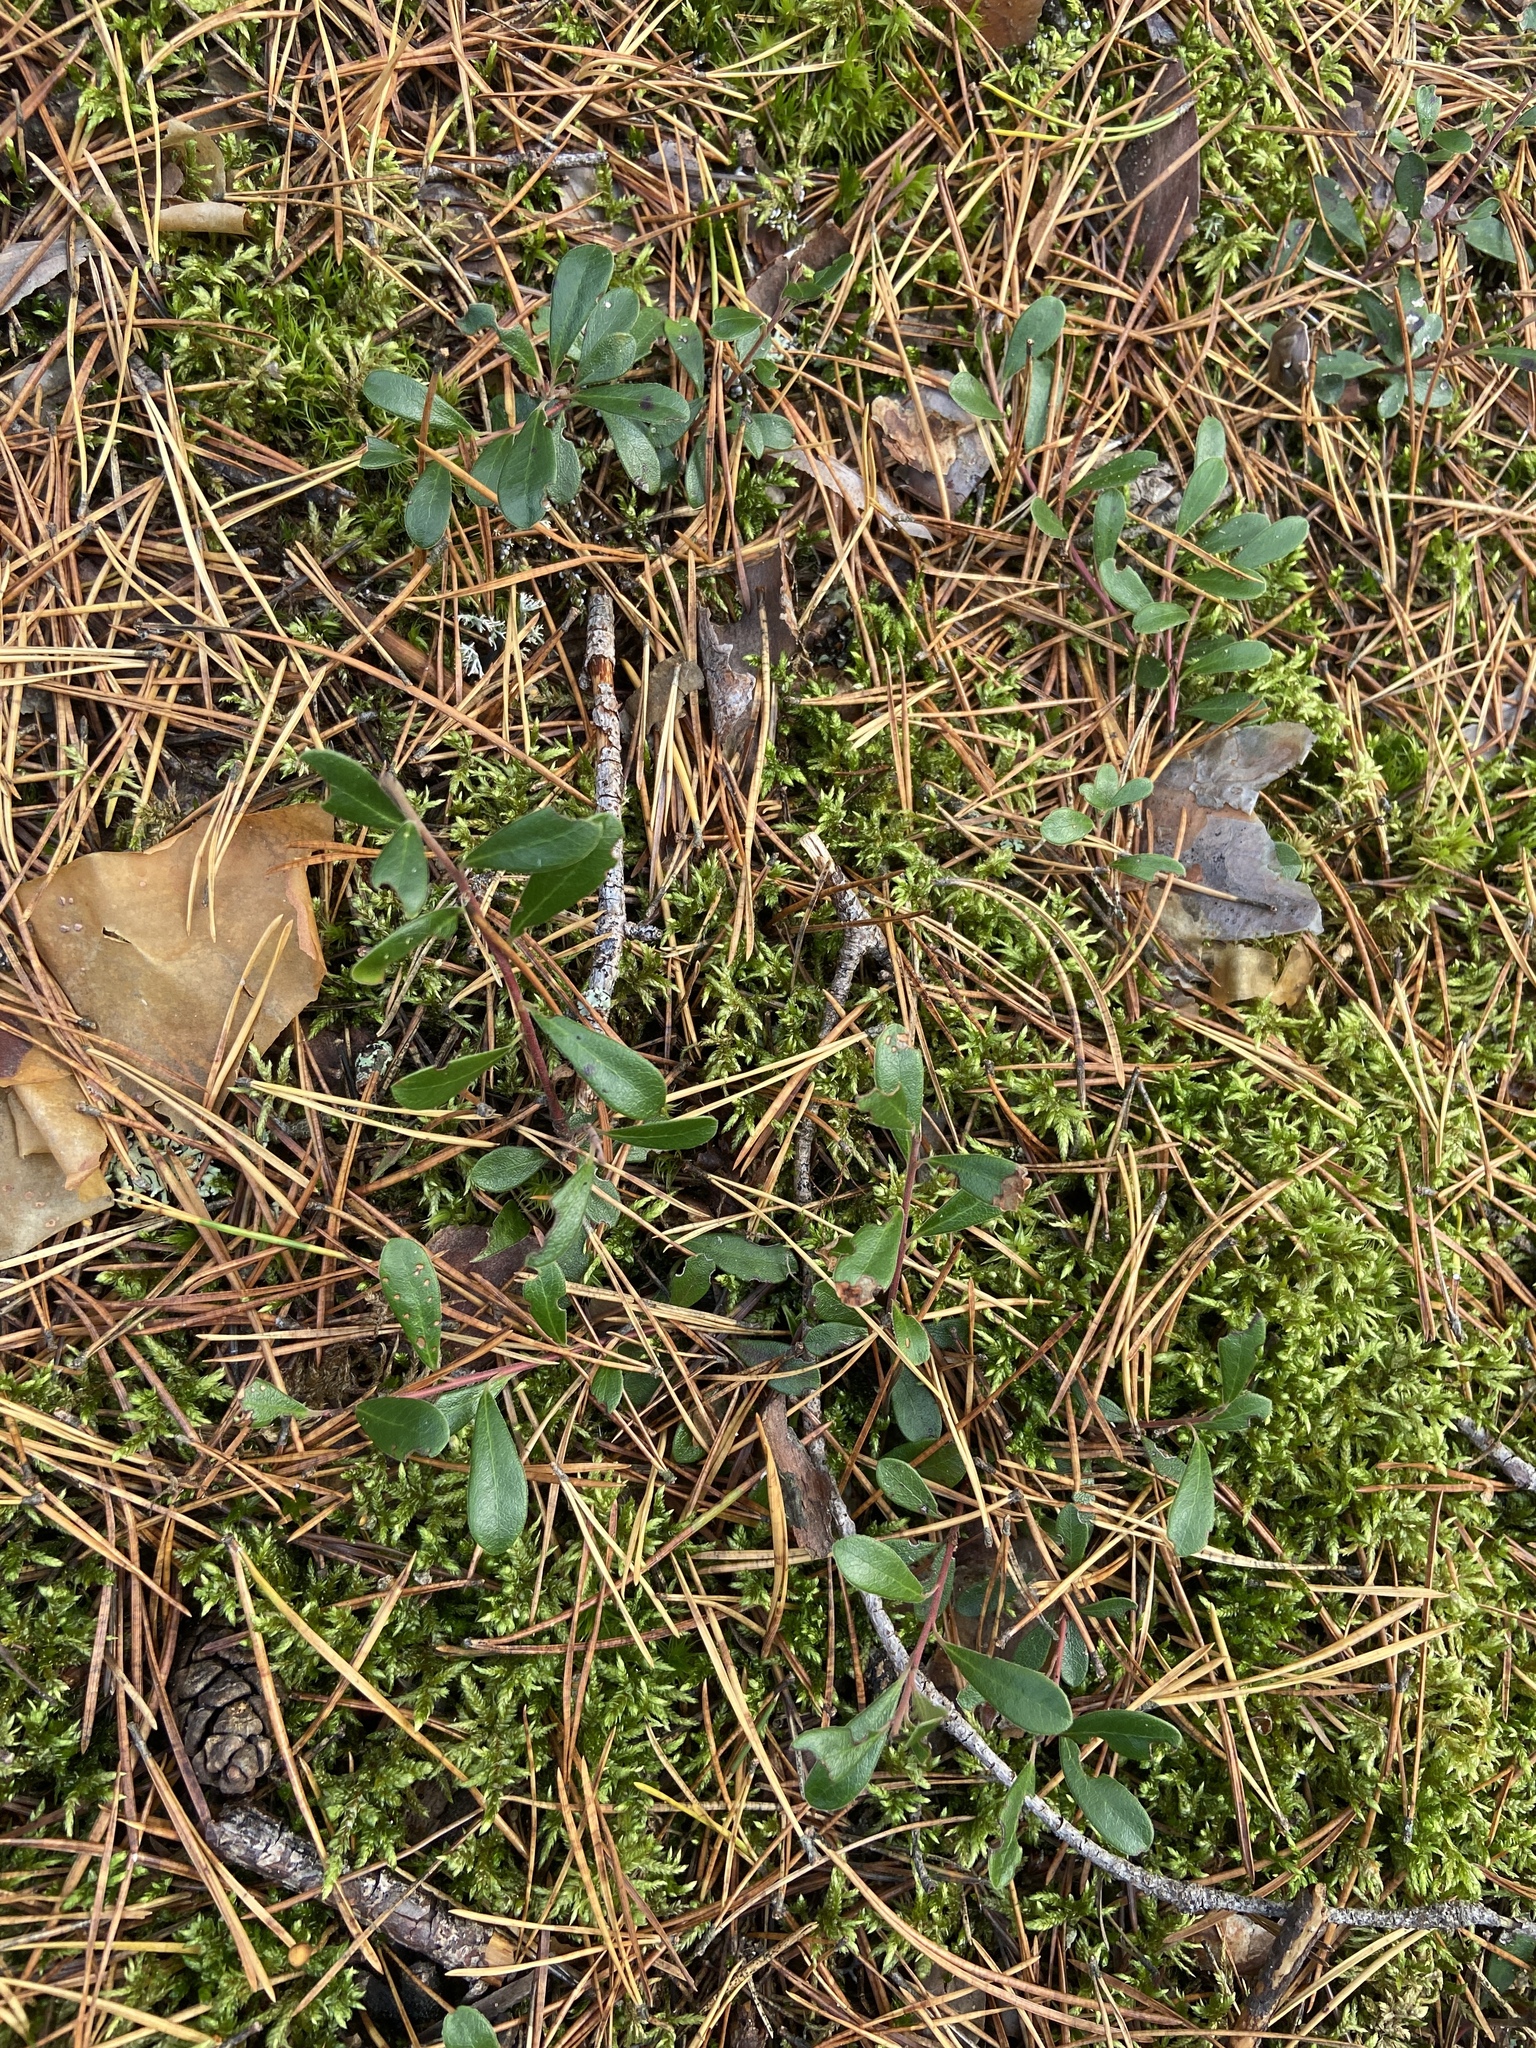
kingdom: Plantae
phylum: Tracheophyta
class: Magnoliopsida
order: Ericales
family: Ericaceae
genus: Arctostaphylos
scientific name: Arctostaphylos uva-ursi
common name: Bearberry
